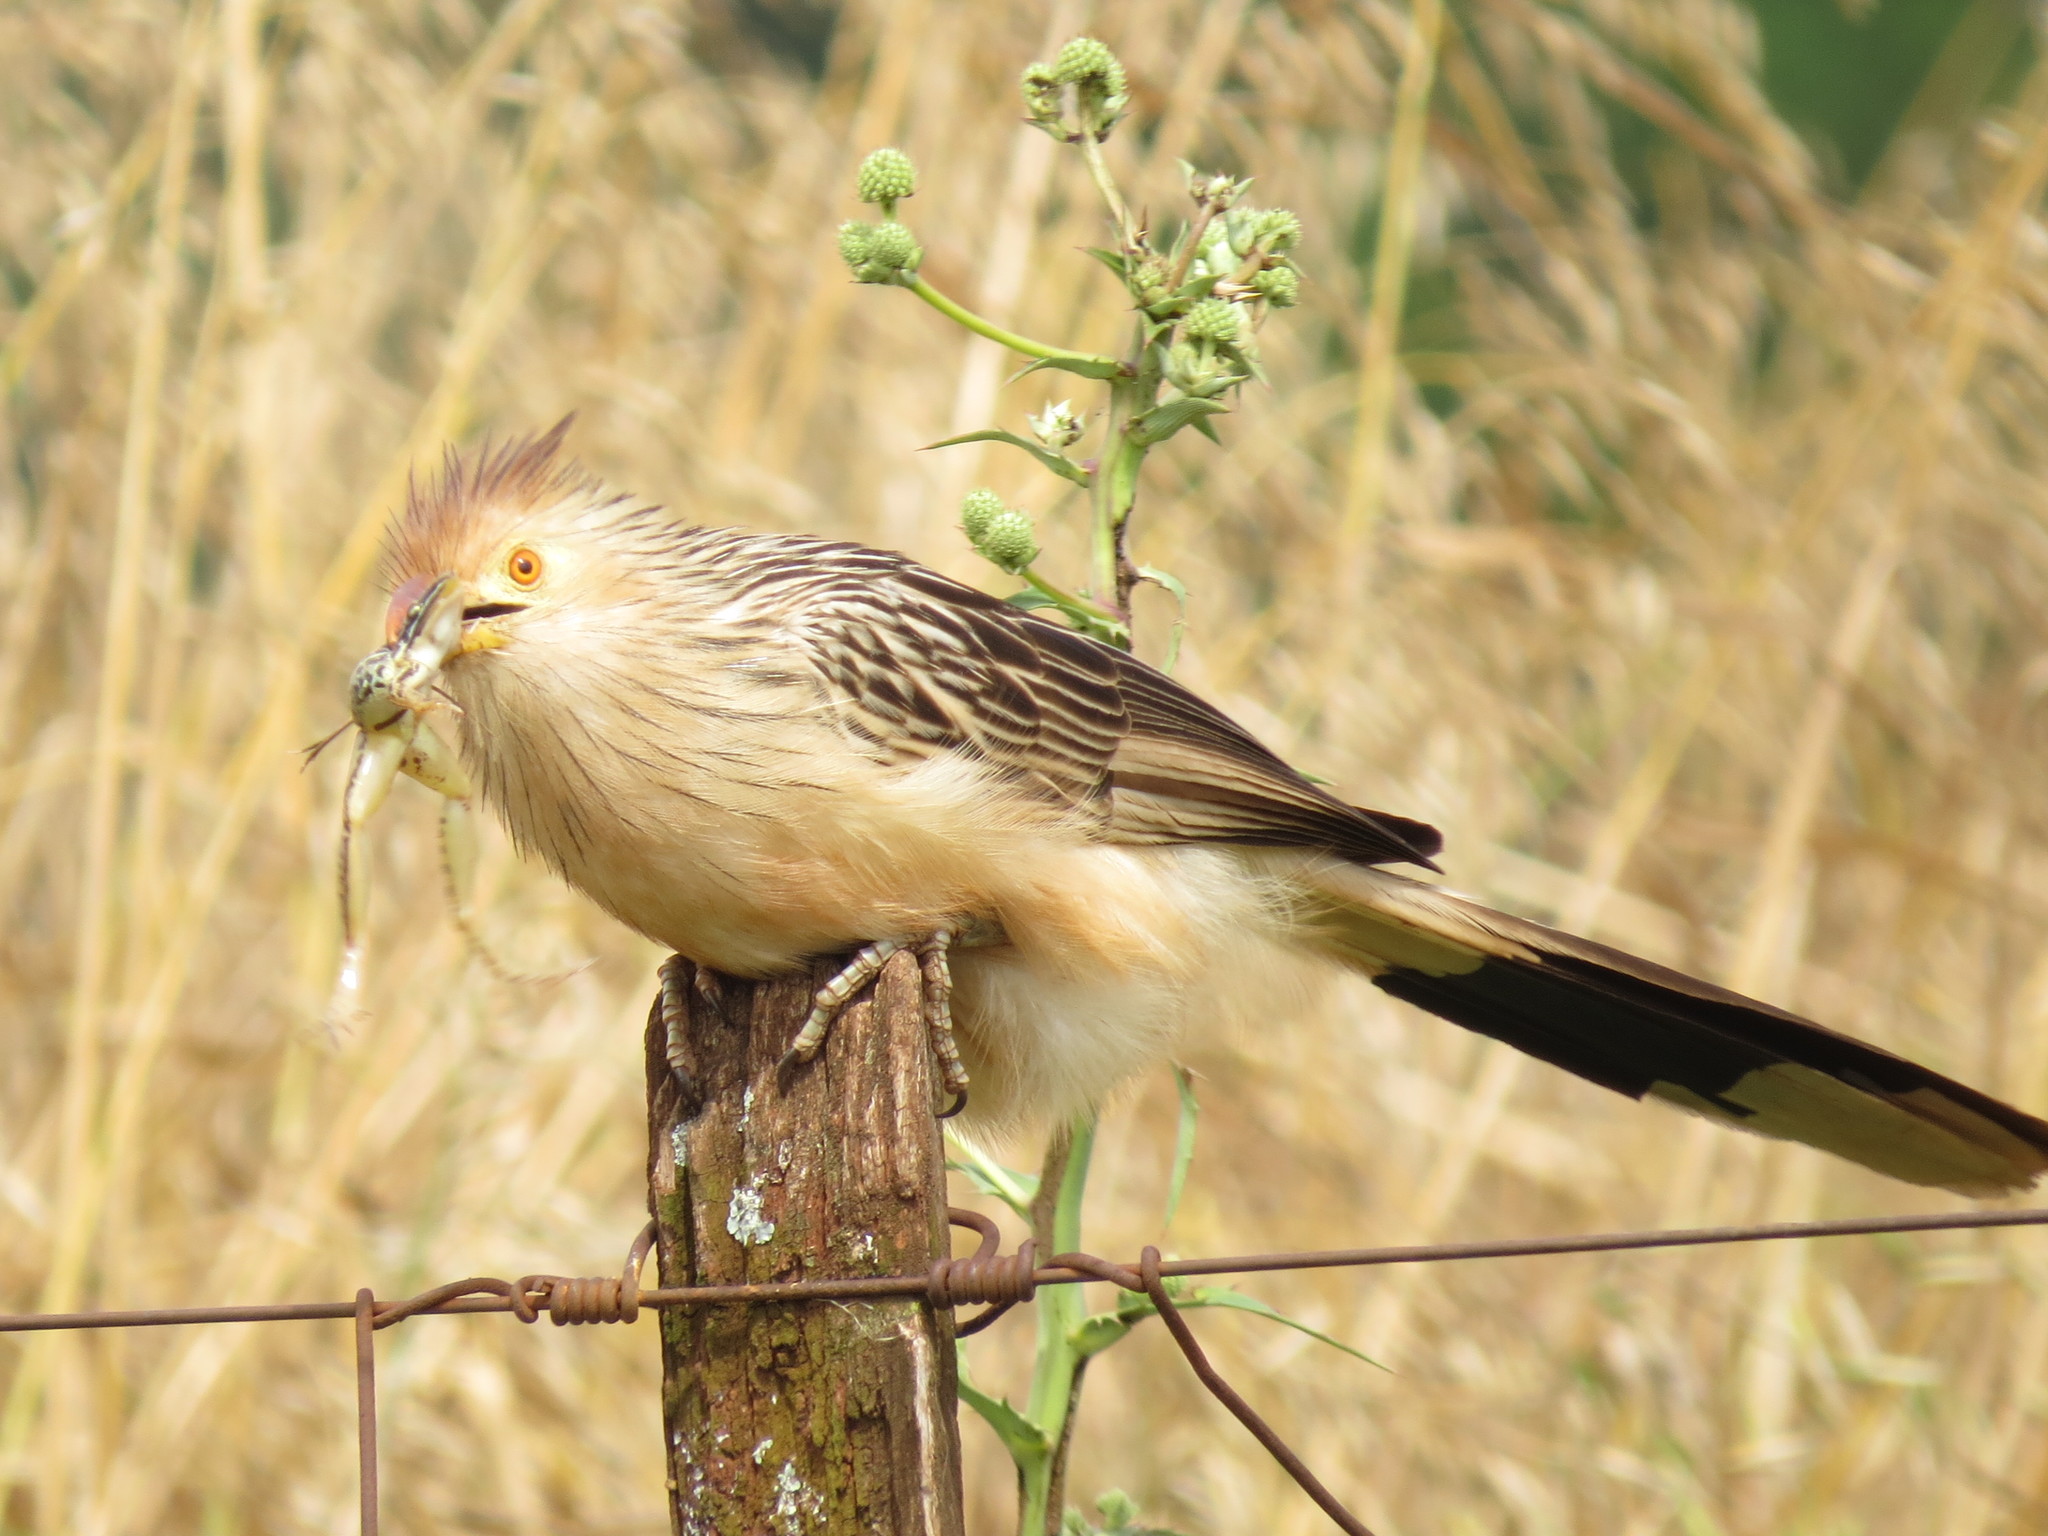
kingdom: Animalia
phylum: Chordata
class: Aves
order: Cuculiformes
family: Cuculidae
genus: Guira
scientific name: Guira guira
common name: Guira cuckoo
